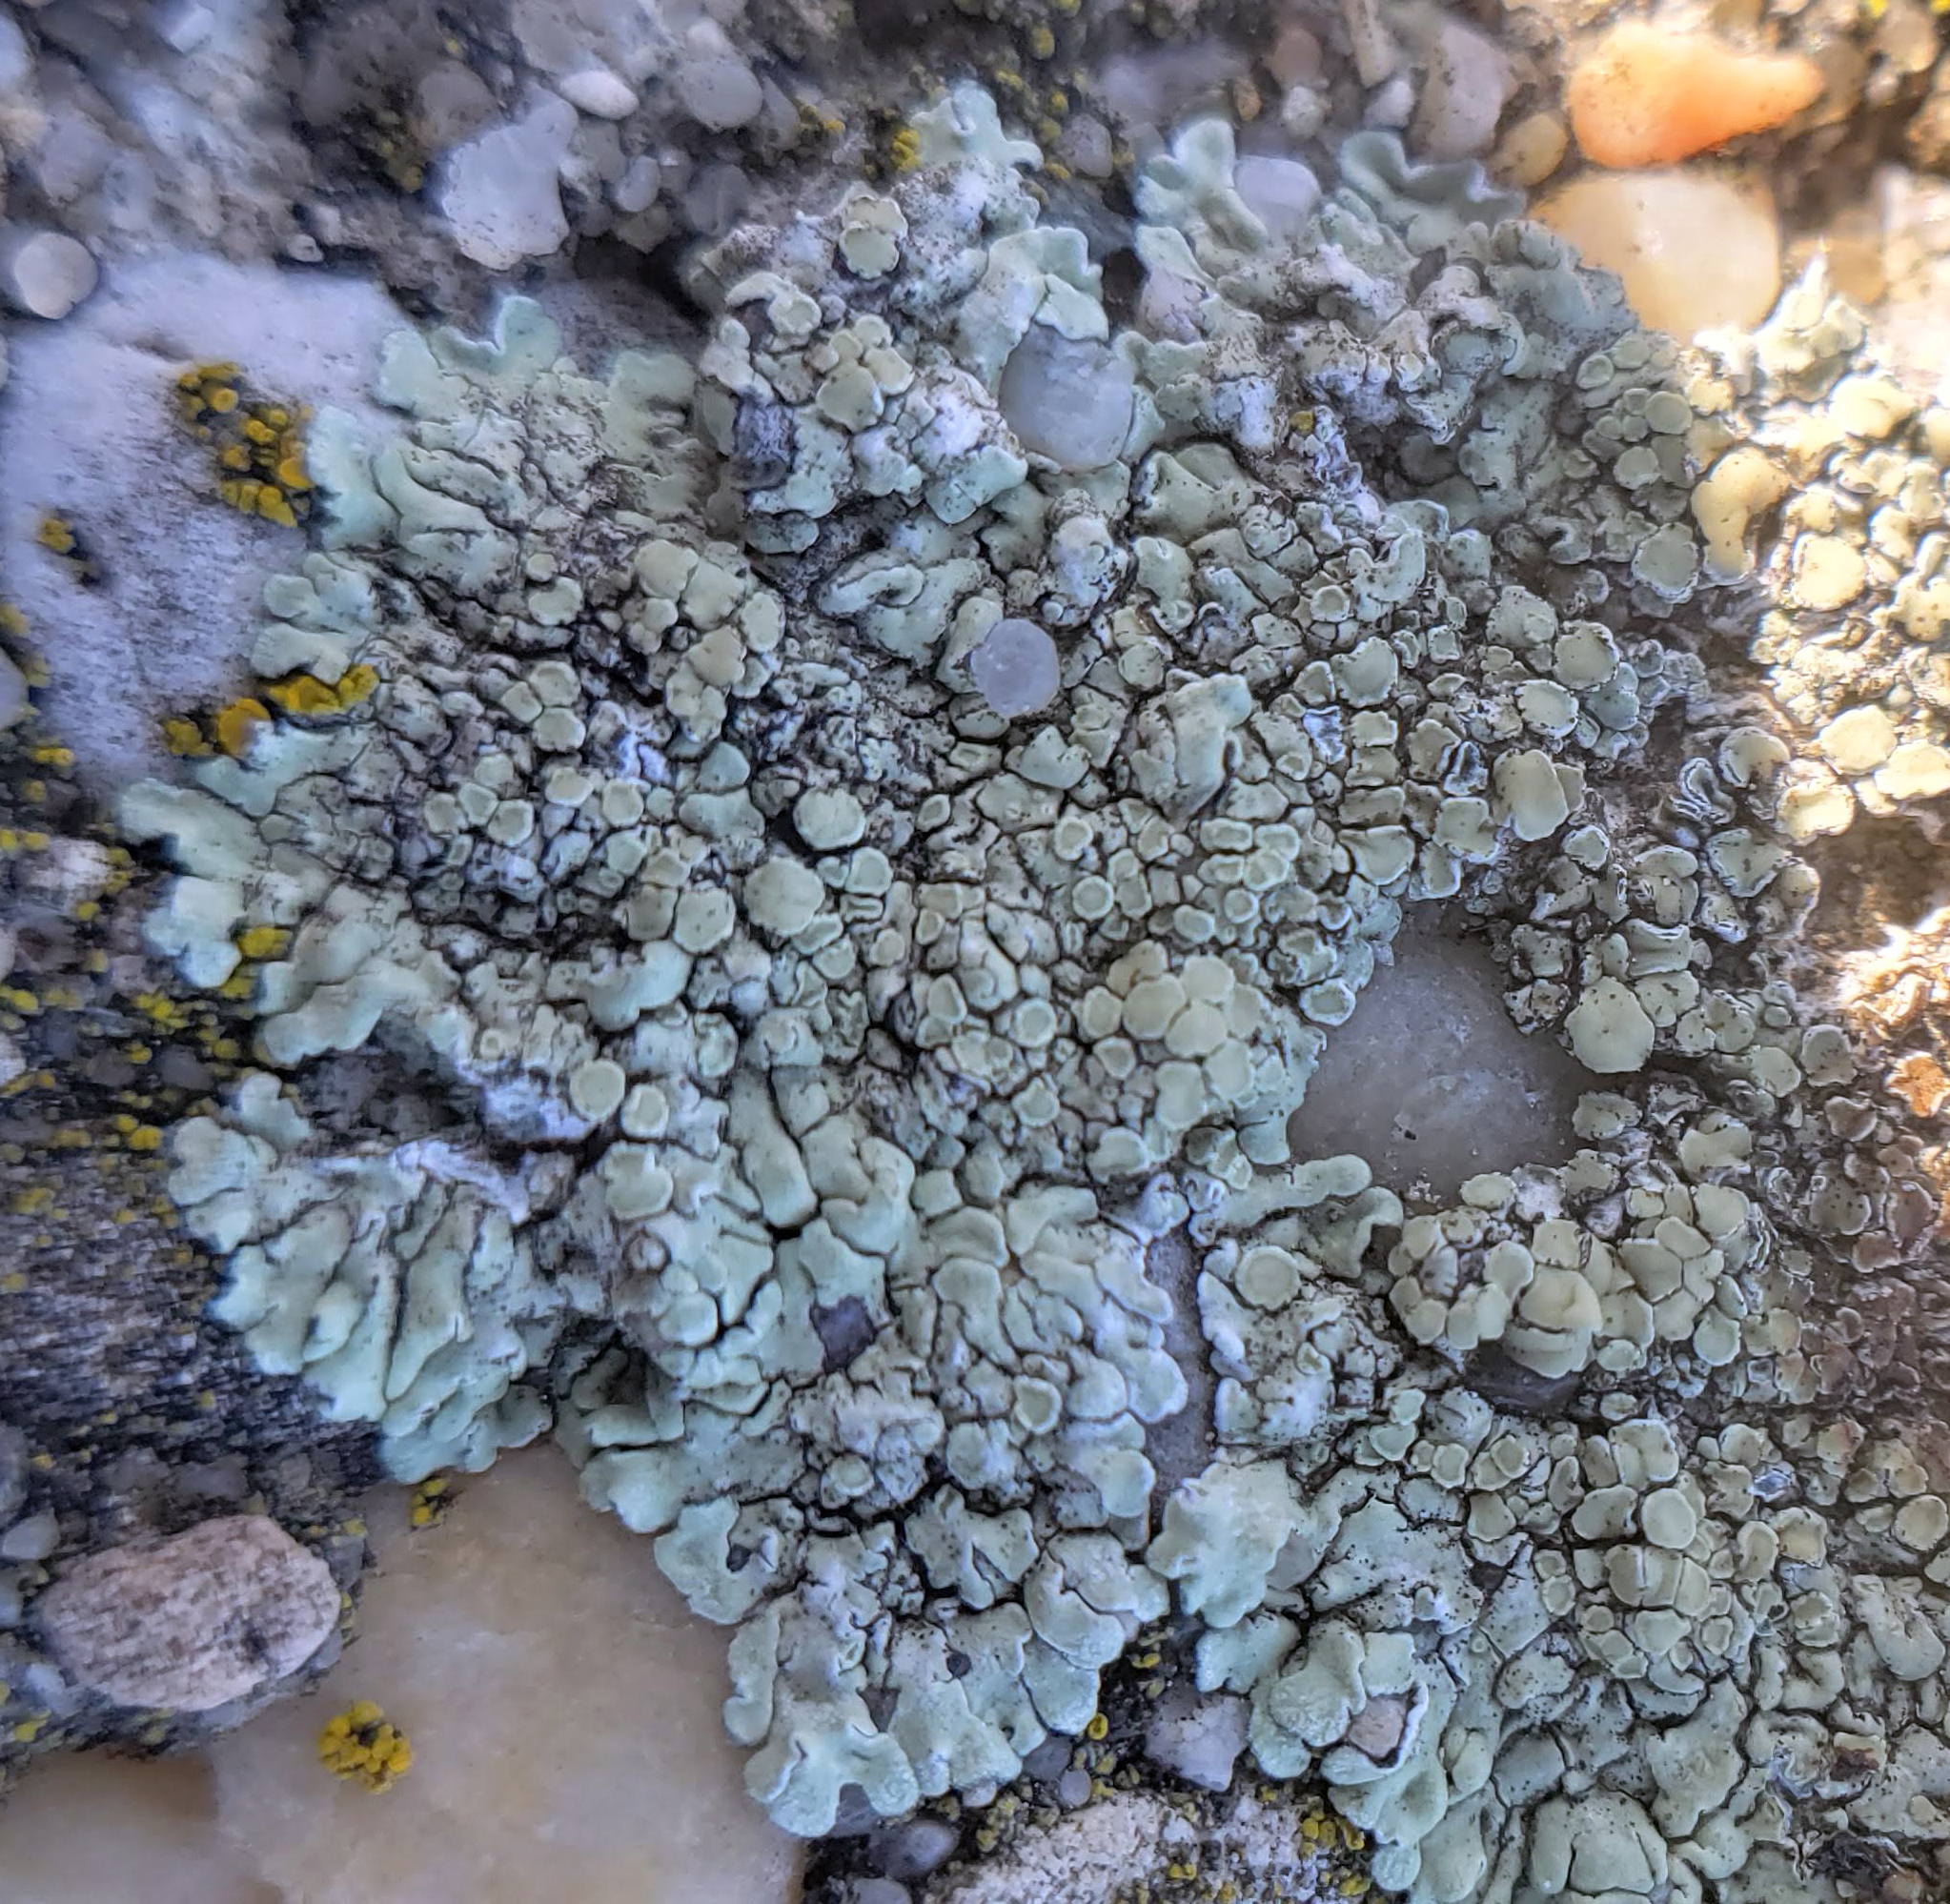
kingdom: Fungi
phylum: Ascomycota
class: Lecanoromycetes
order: Lecanorales
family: Lecanoraceae
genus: Protoparmeliopsis
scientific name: Protoparmeliopsis muralis
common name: Stonewall rim lichen
